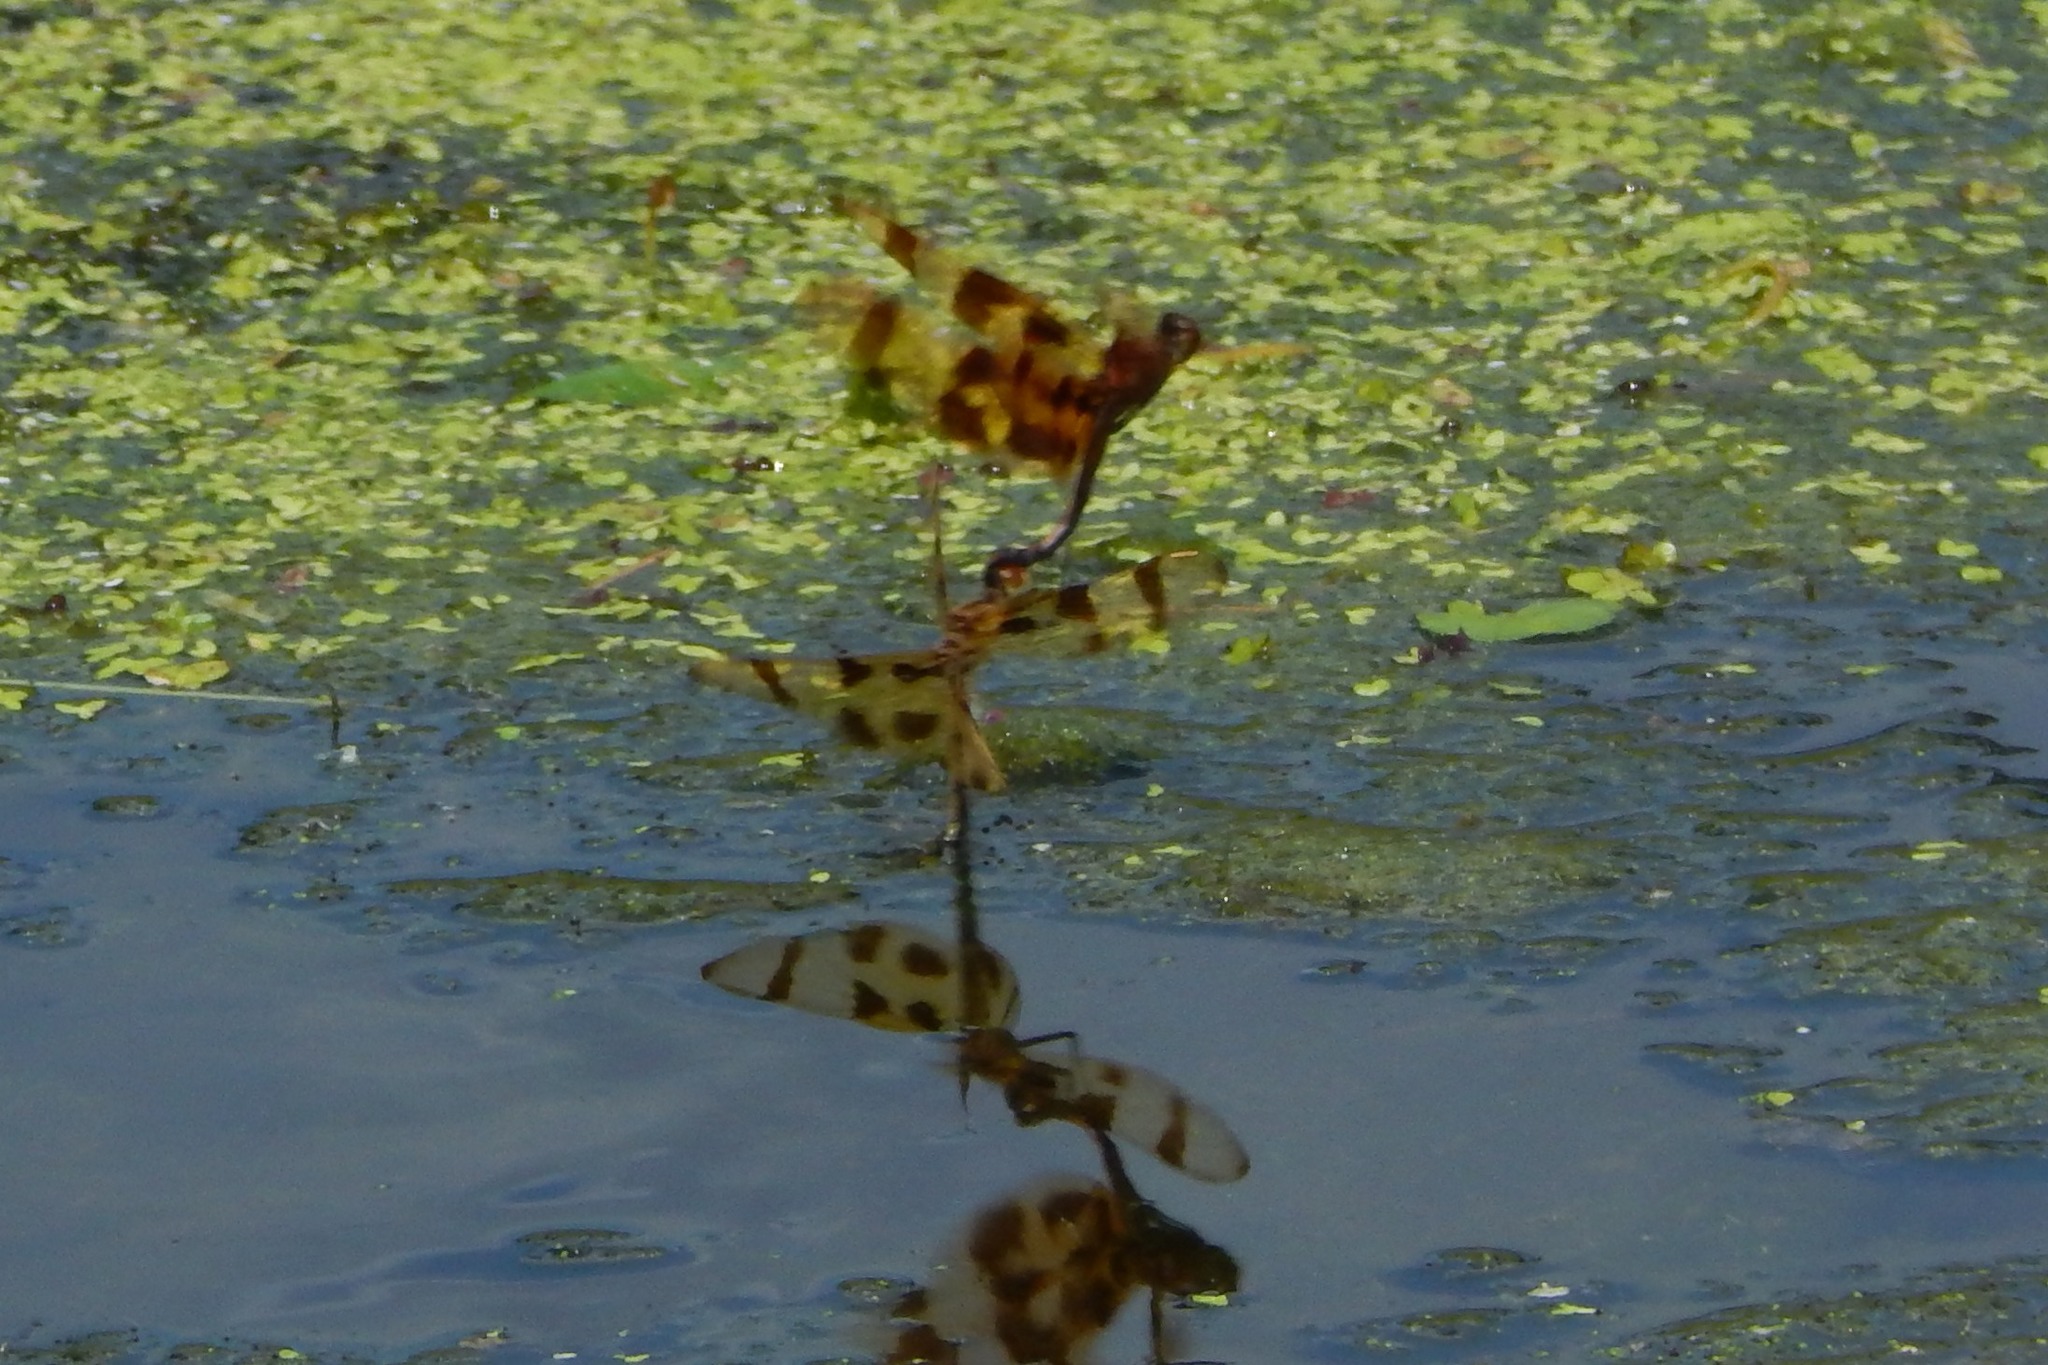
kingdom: Animalia
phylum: Arthropoda
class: Insecta
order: Odonata
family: Libellulidae
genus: Celithemis
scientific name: Celithemis eponina
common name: Halloween pennant
